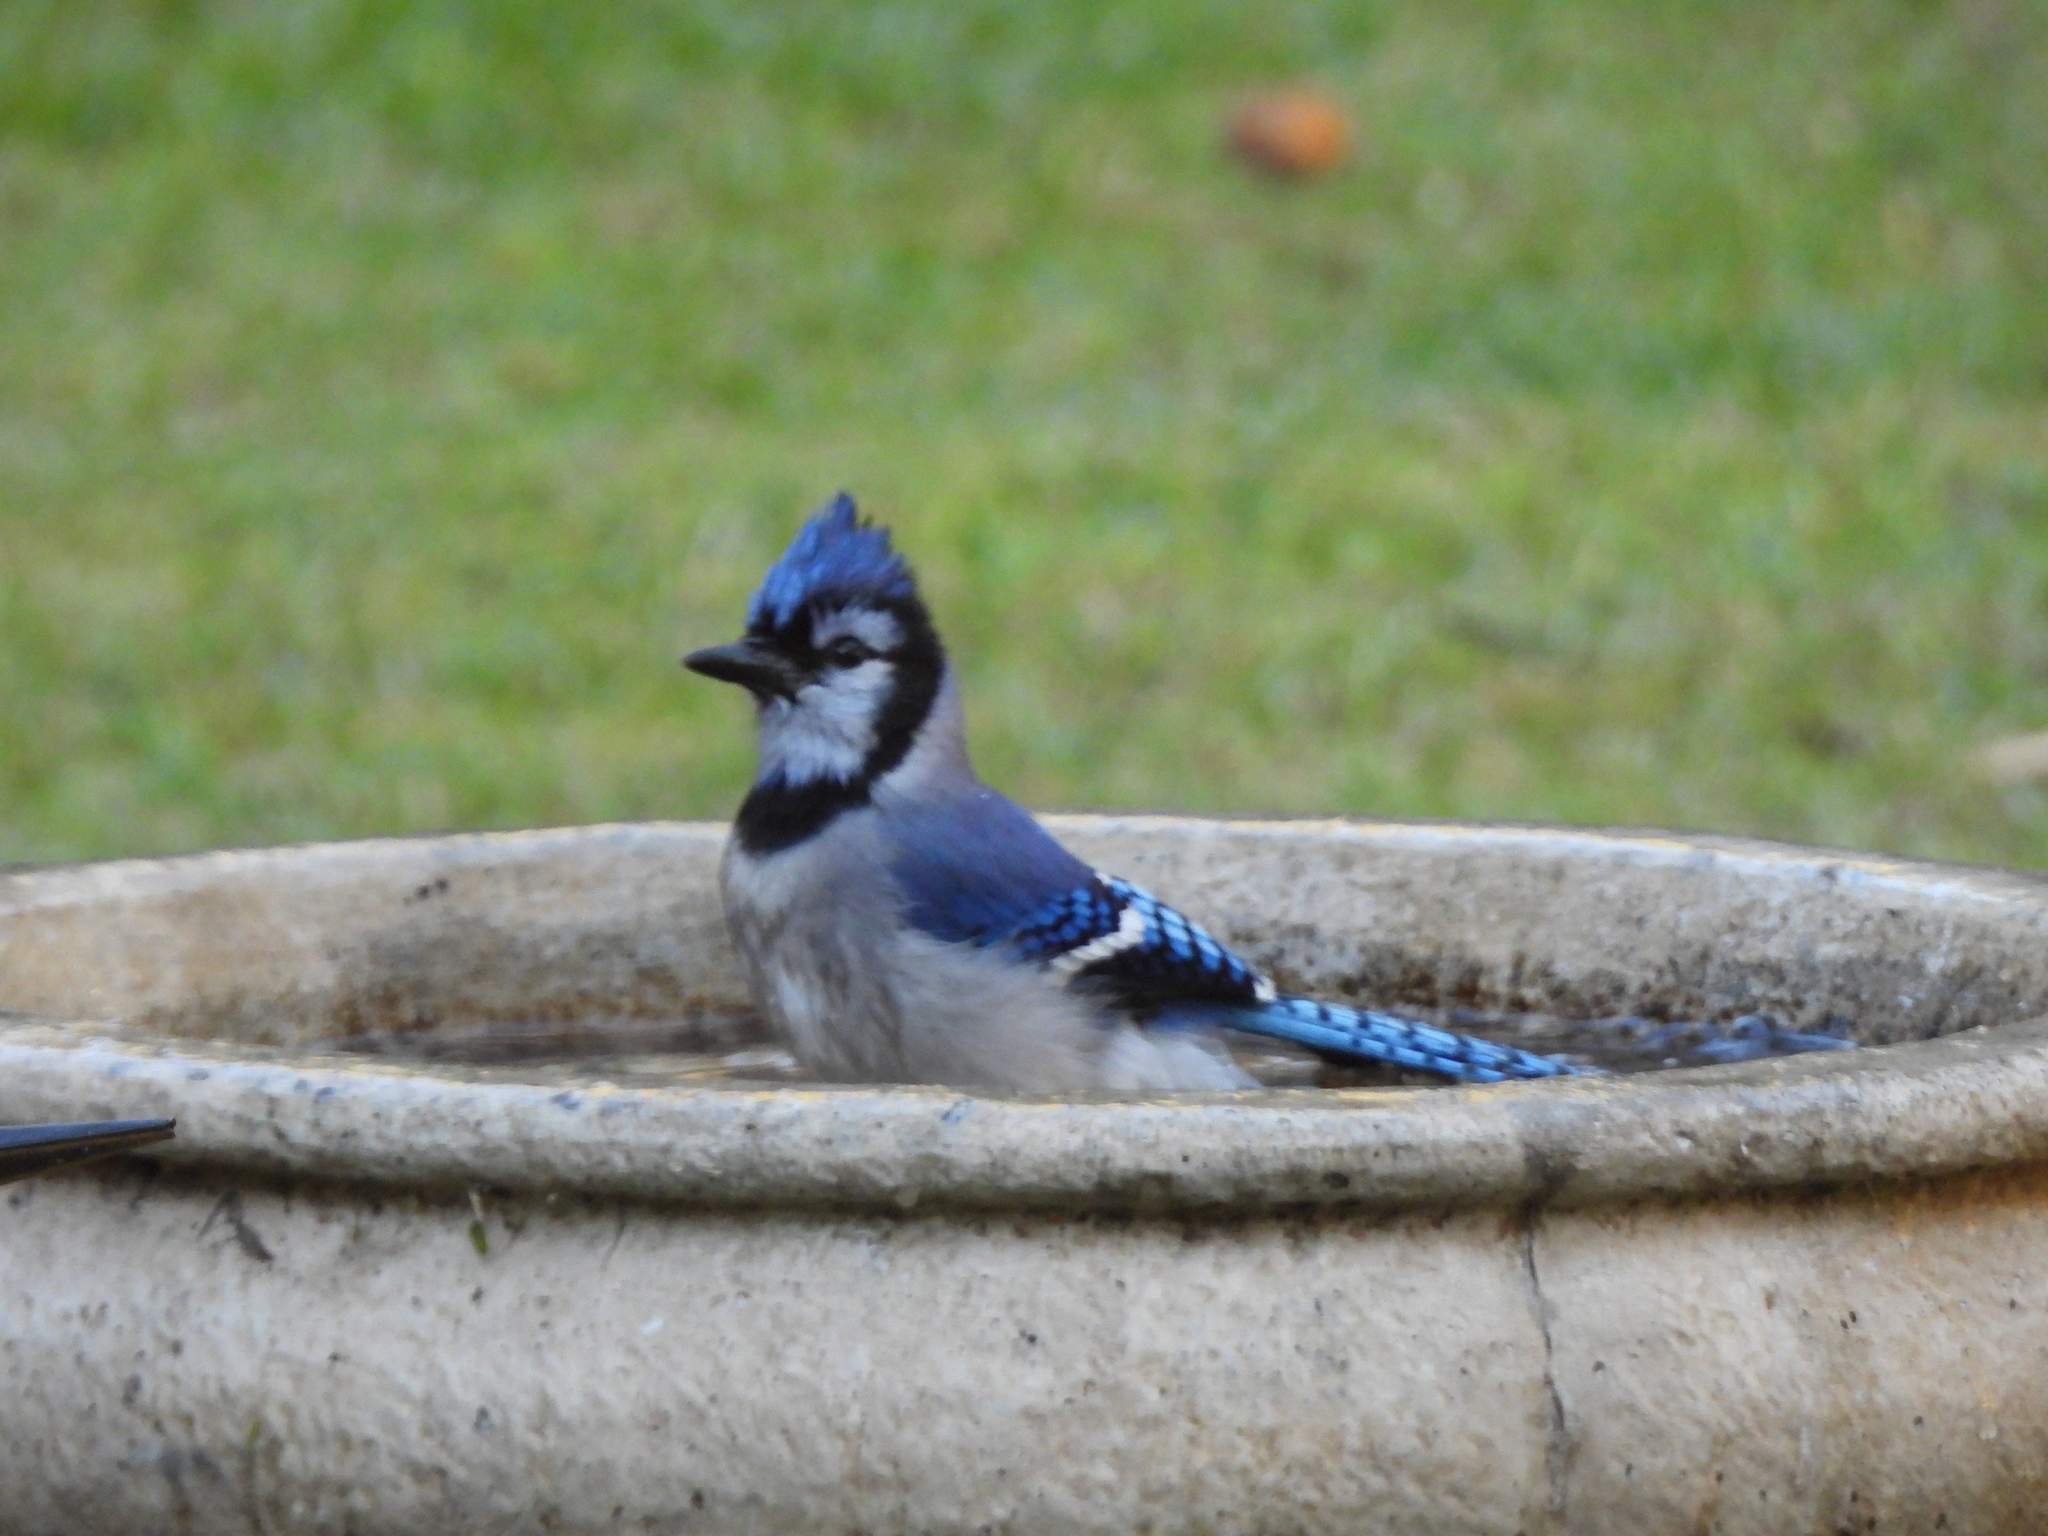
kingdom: Animalia
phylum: Chordata
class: Aves
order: Passeriformes
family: Corvidae
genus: Cyanocitta
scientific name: Cyanocitta cristata
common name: Blue jay
